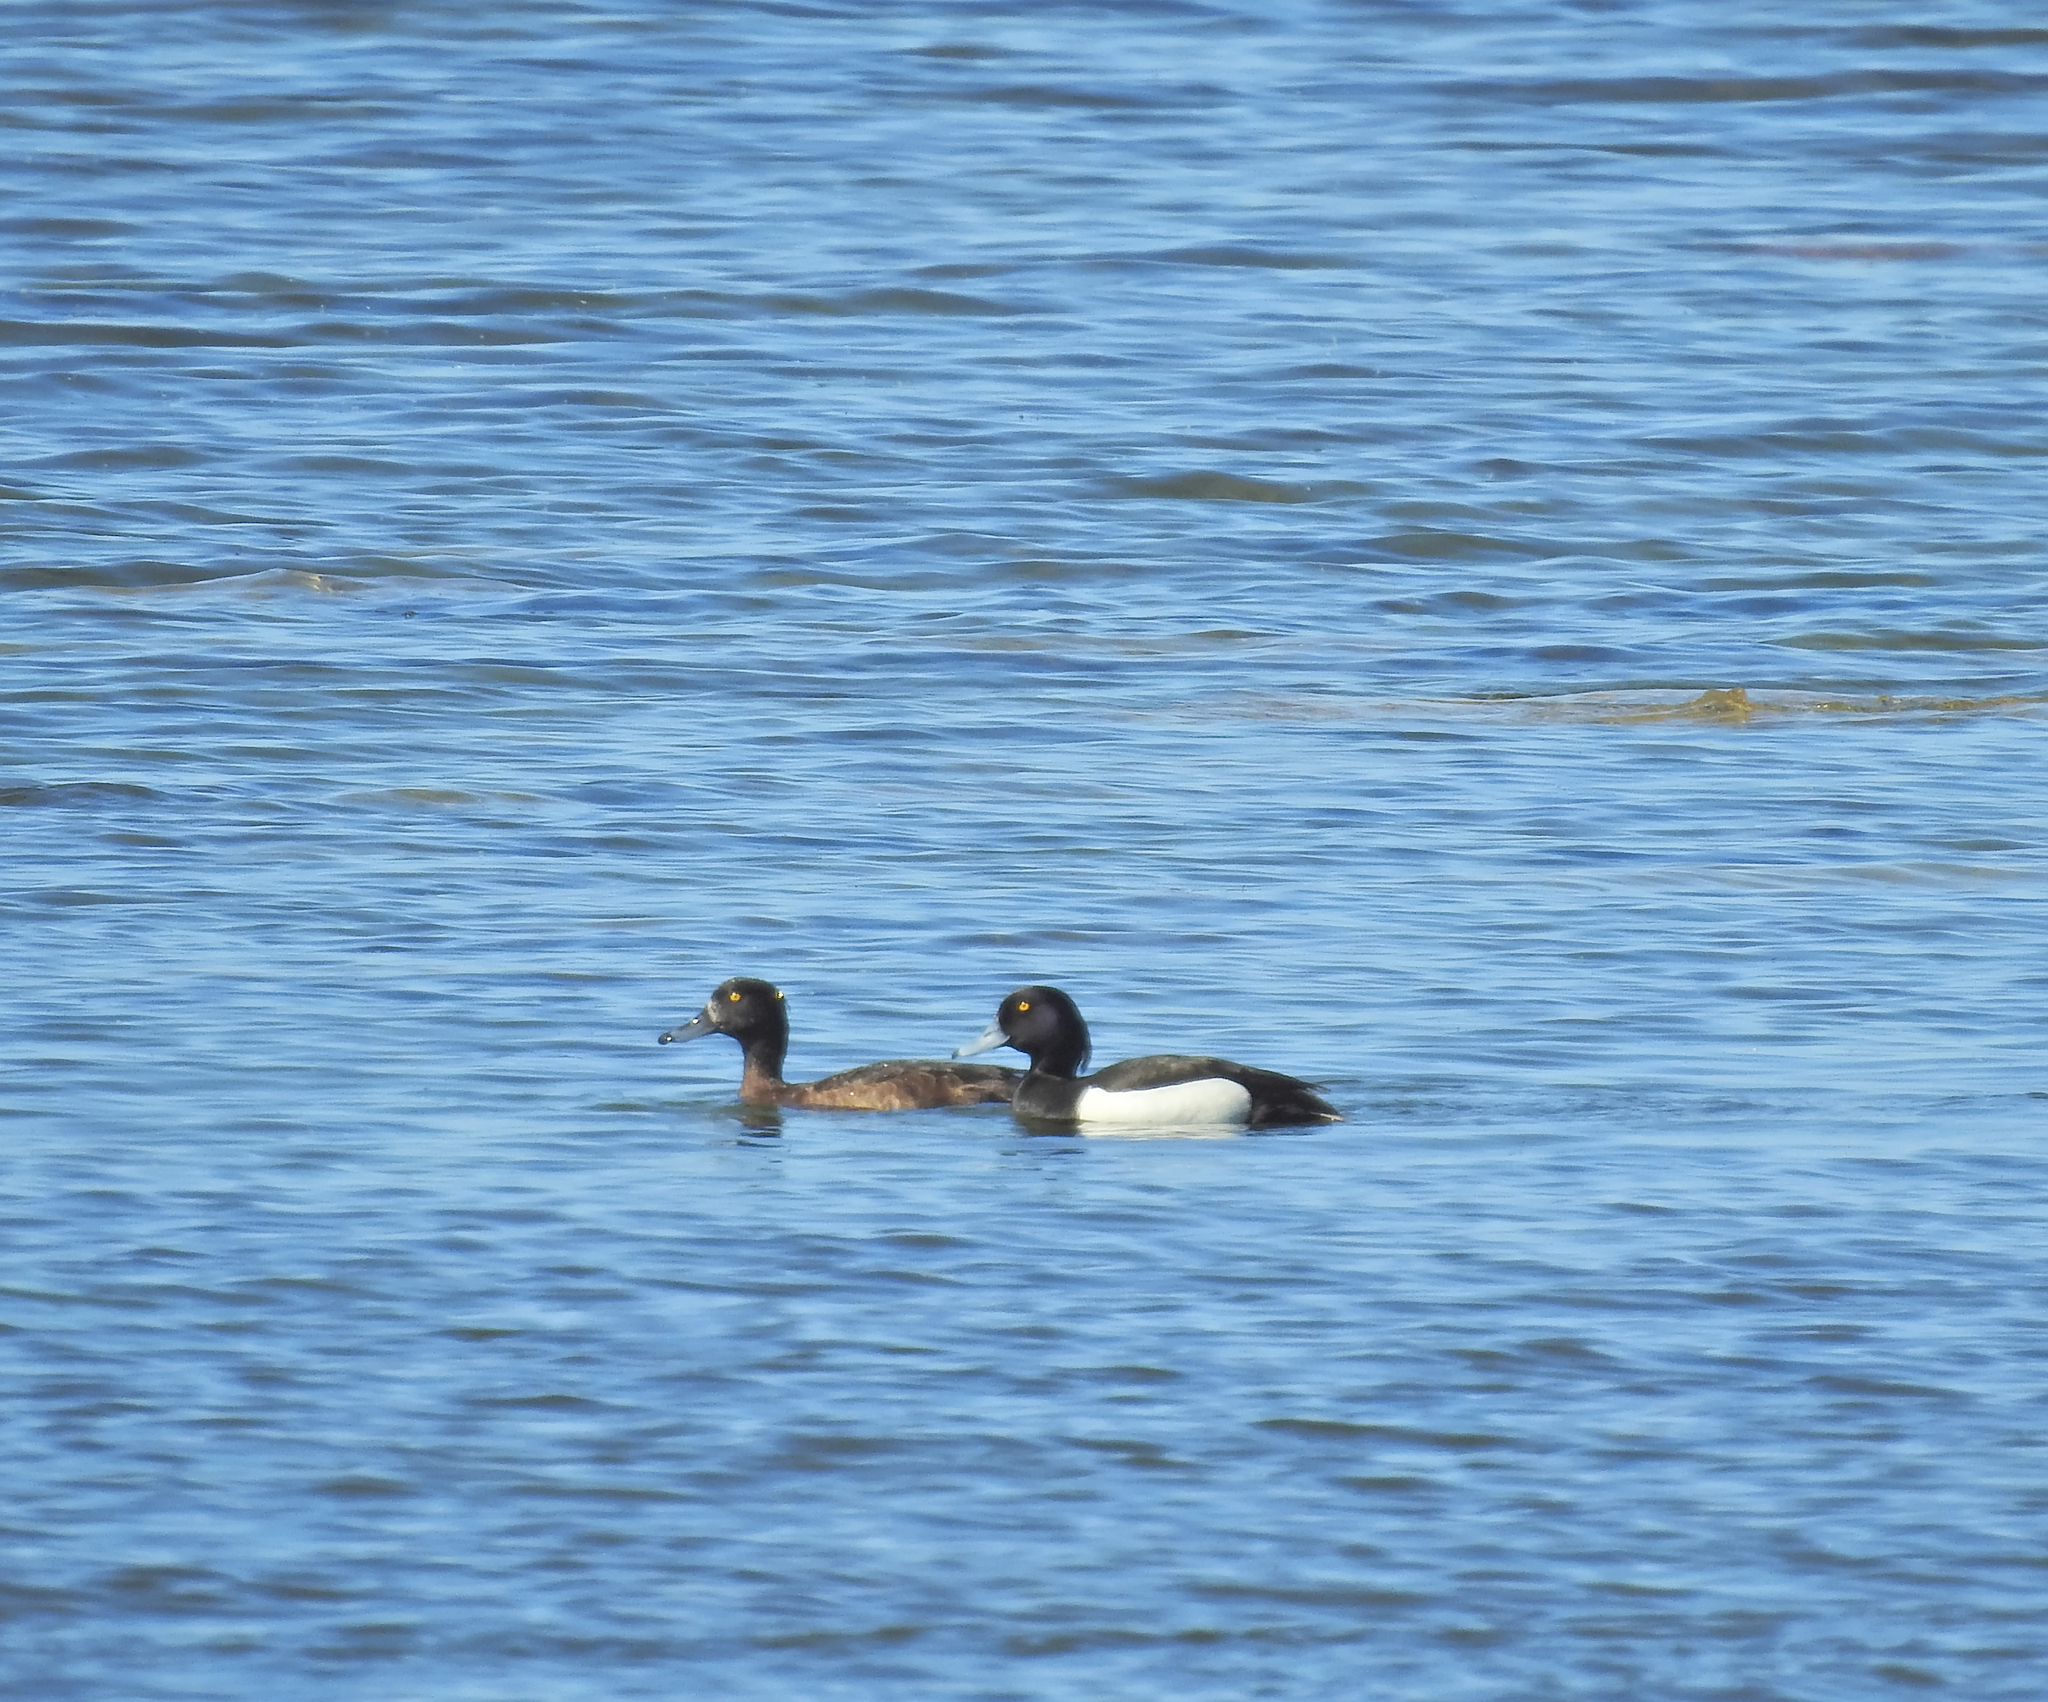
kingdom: Animalia
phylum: Chordata
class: Aves
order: Anseriformes
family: Anatidae
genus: Aythya
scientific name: Aythya fuligula
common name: Tufted duck
